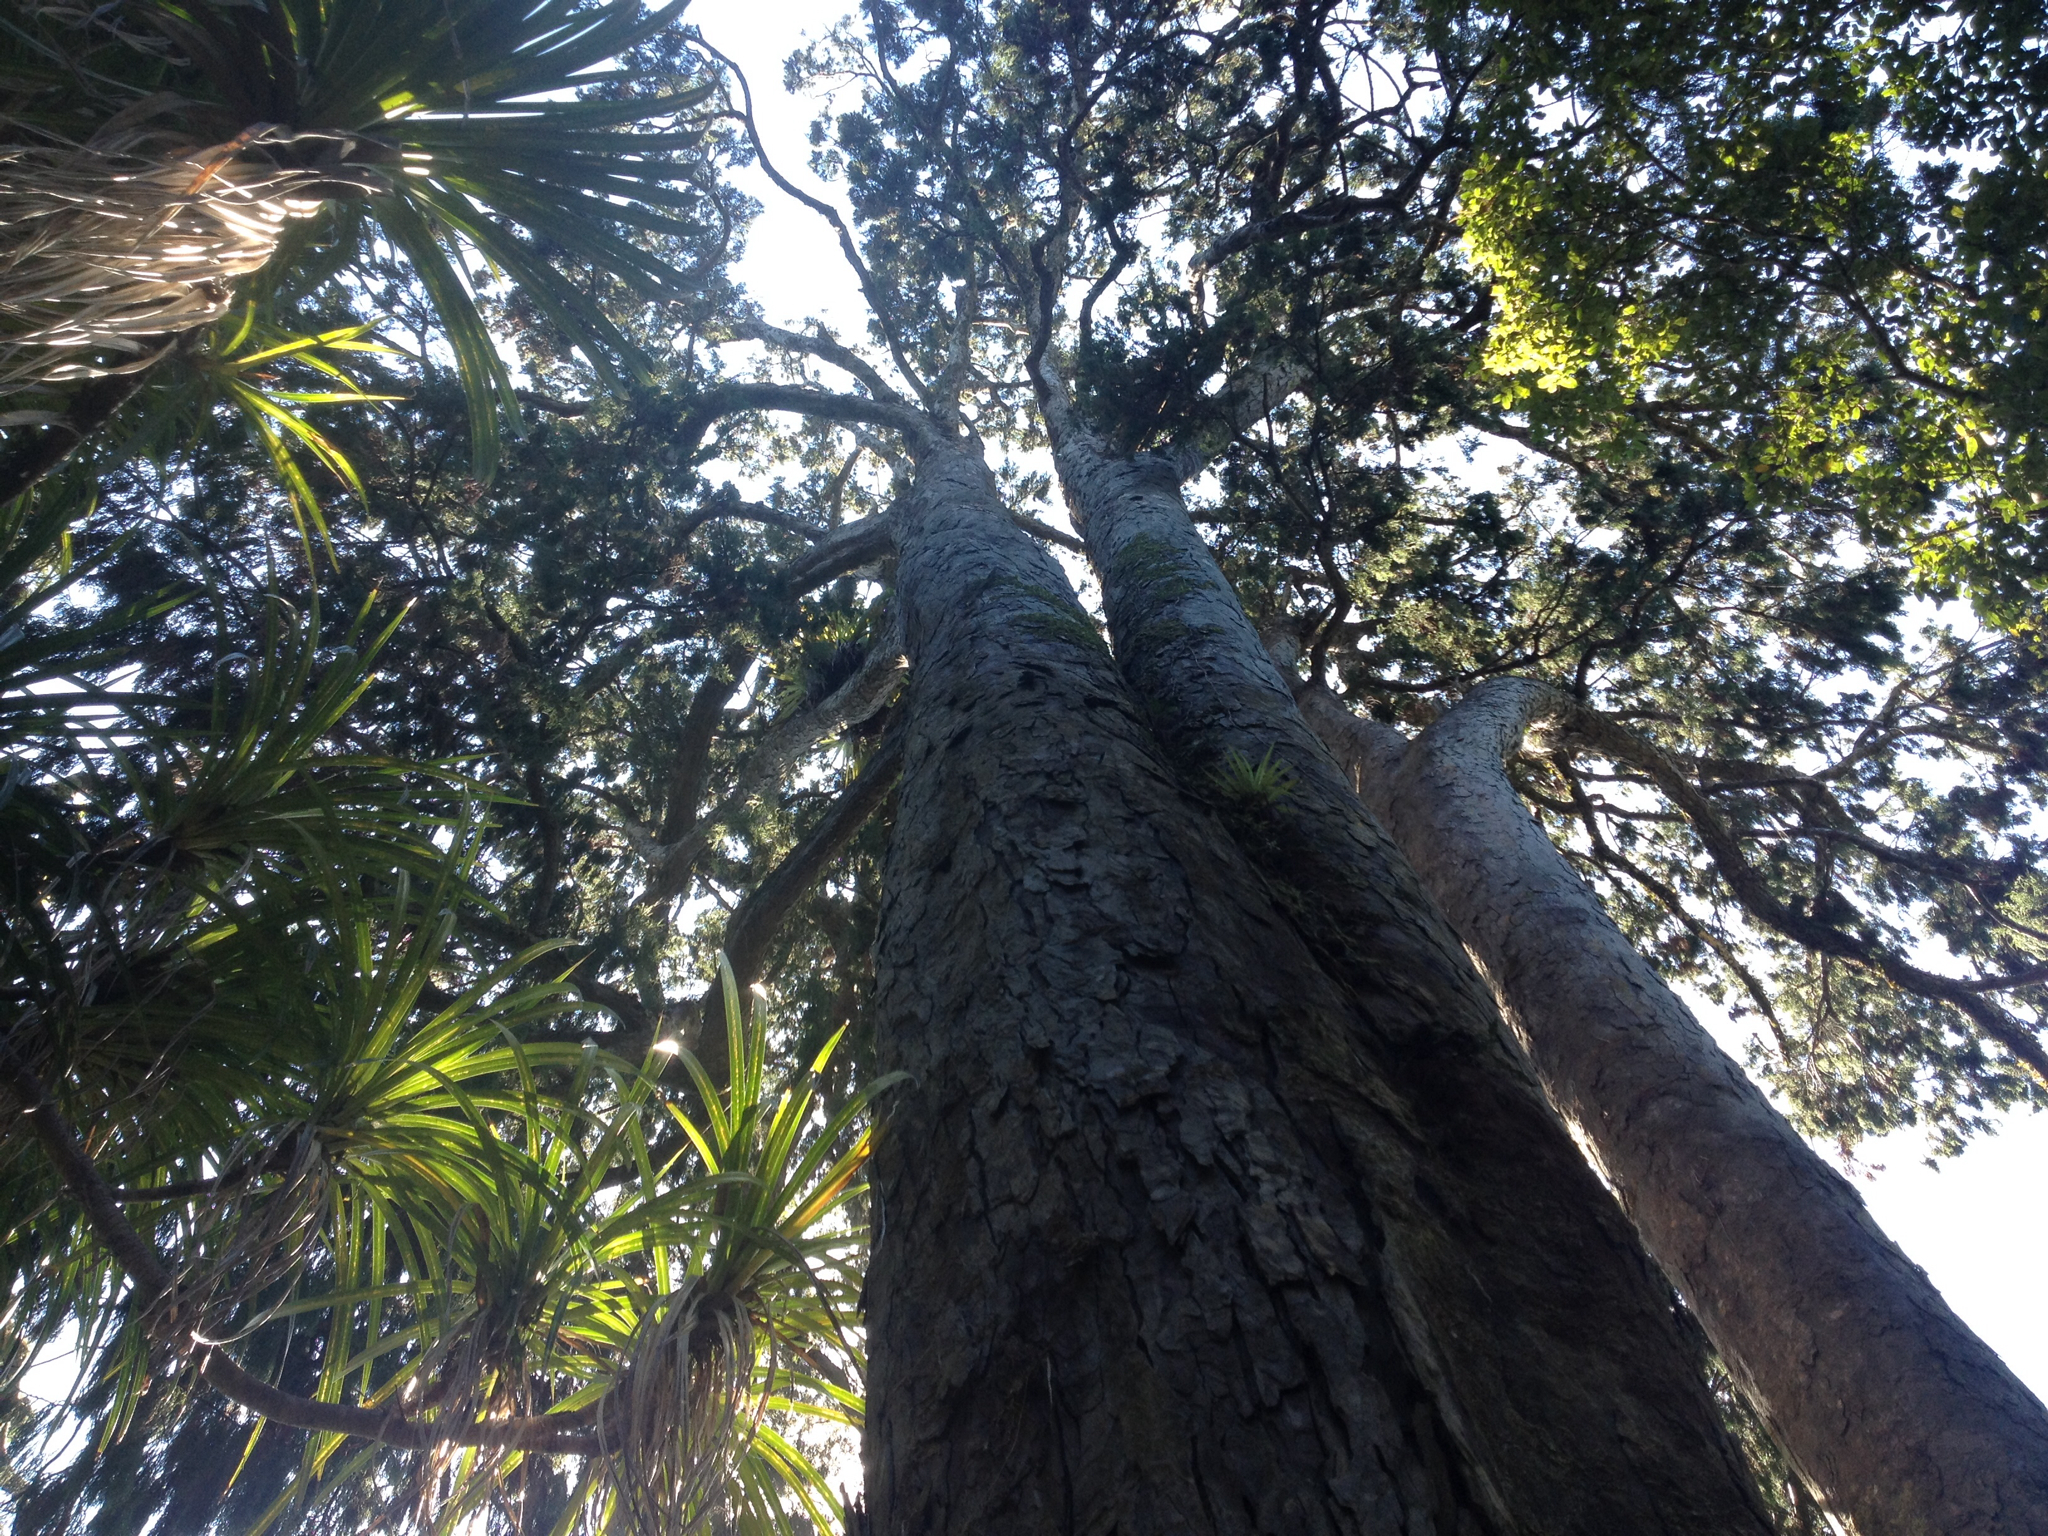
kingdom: Plantae
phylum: Tracheophyta
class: Pinopsida
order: Pinales
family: Podocarpaceae
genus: Dacrydium
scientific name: Dacrydium cupressinum
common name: Red pine
